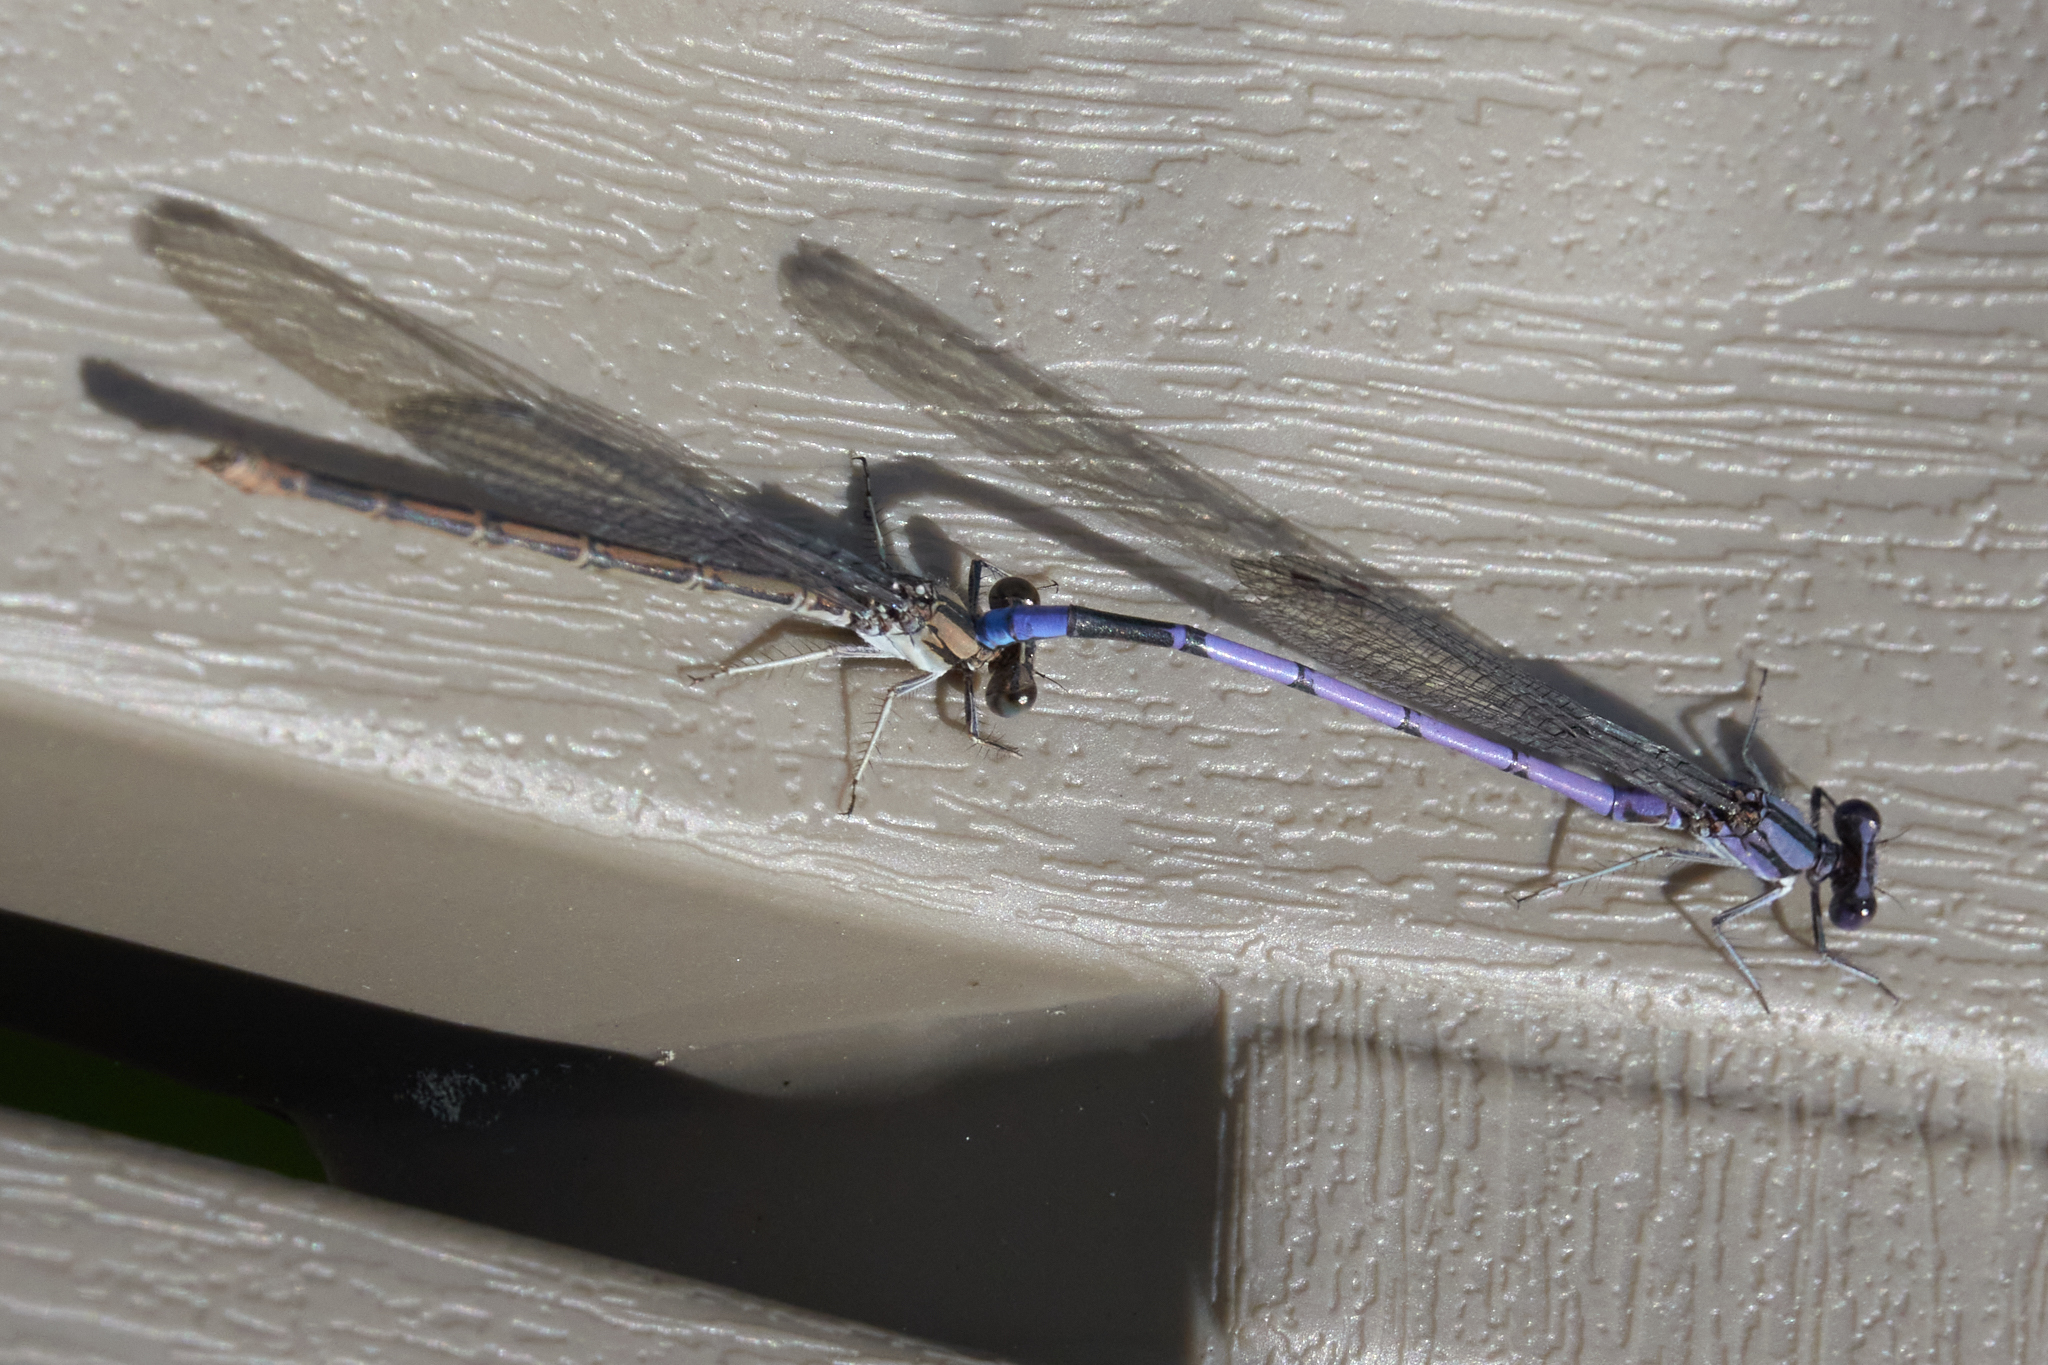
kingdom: Animalia
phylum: Arthropoda
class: Insecta
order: Odonata
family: Coenagrionidae
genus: Argia
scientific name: Argia fumipennis
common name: Variable dancer
